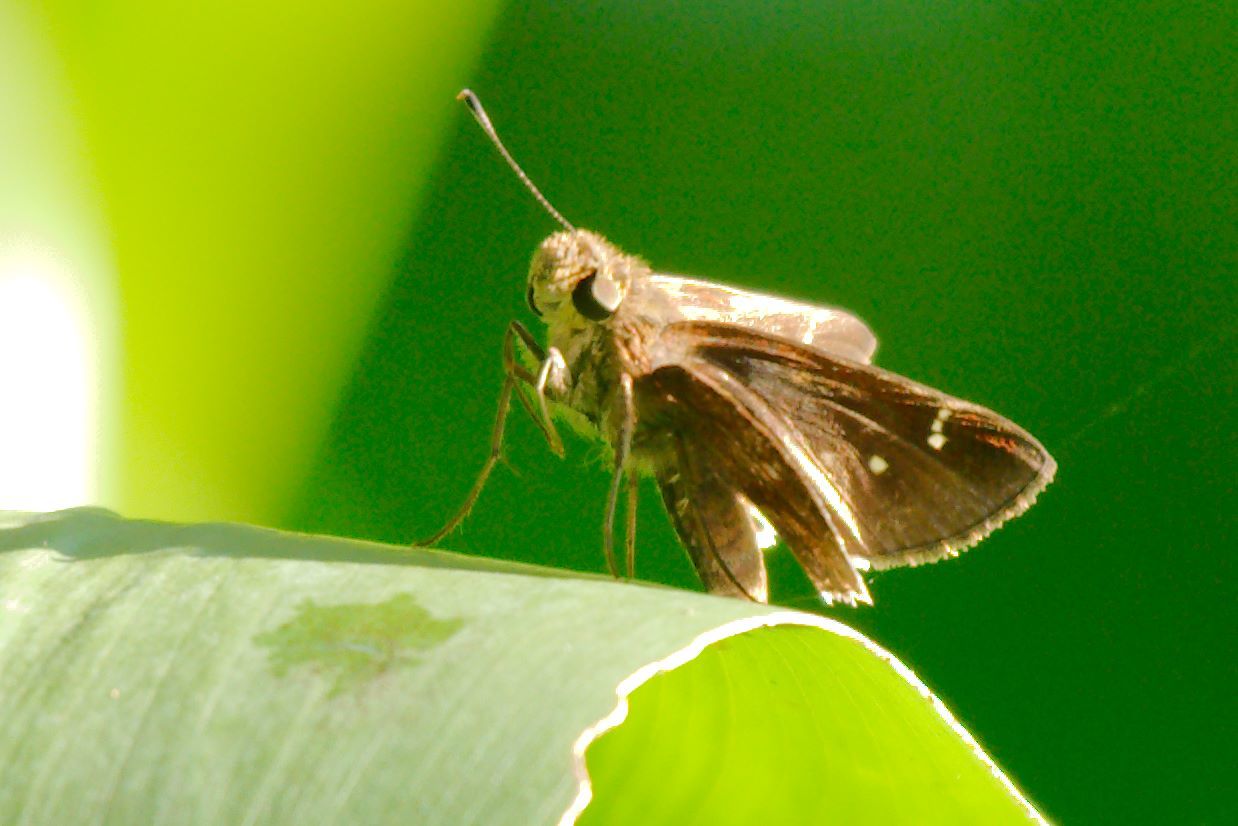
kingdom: Animalia
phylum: Arthropoda
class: Insecta
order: Lepidoptera
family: Hesperiidae
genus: Lerema
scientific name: Lerema accius
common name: Clouded skipper
